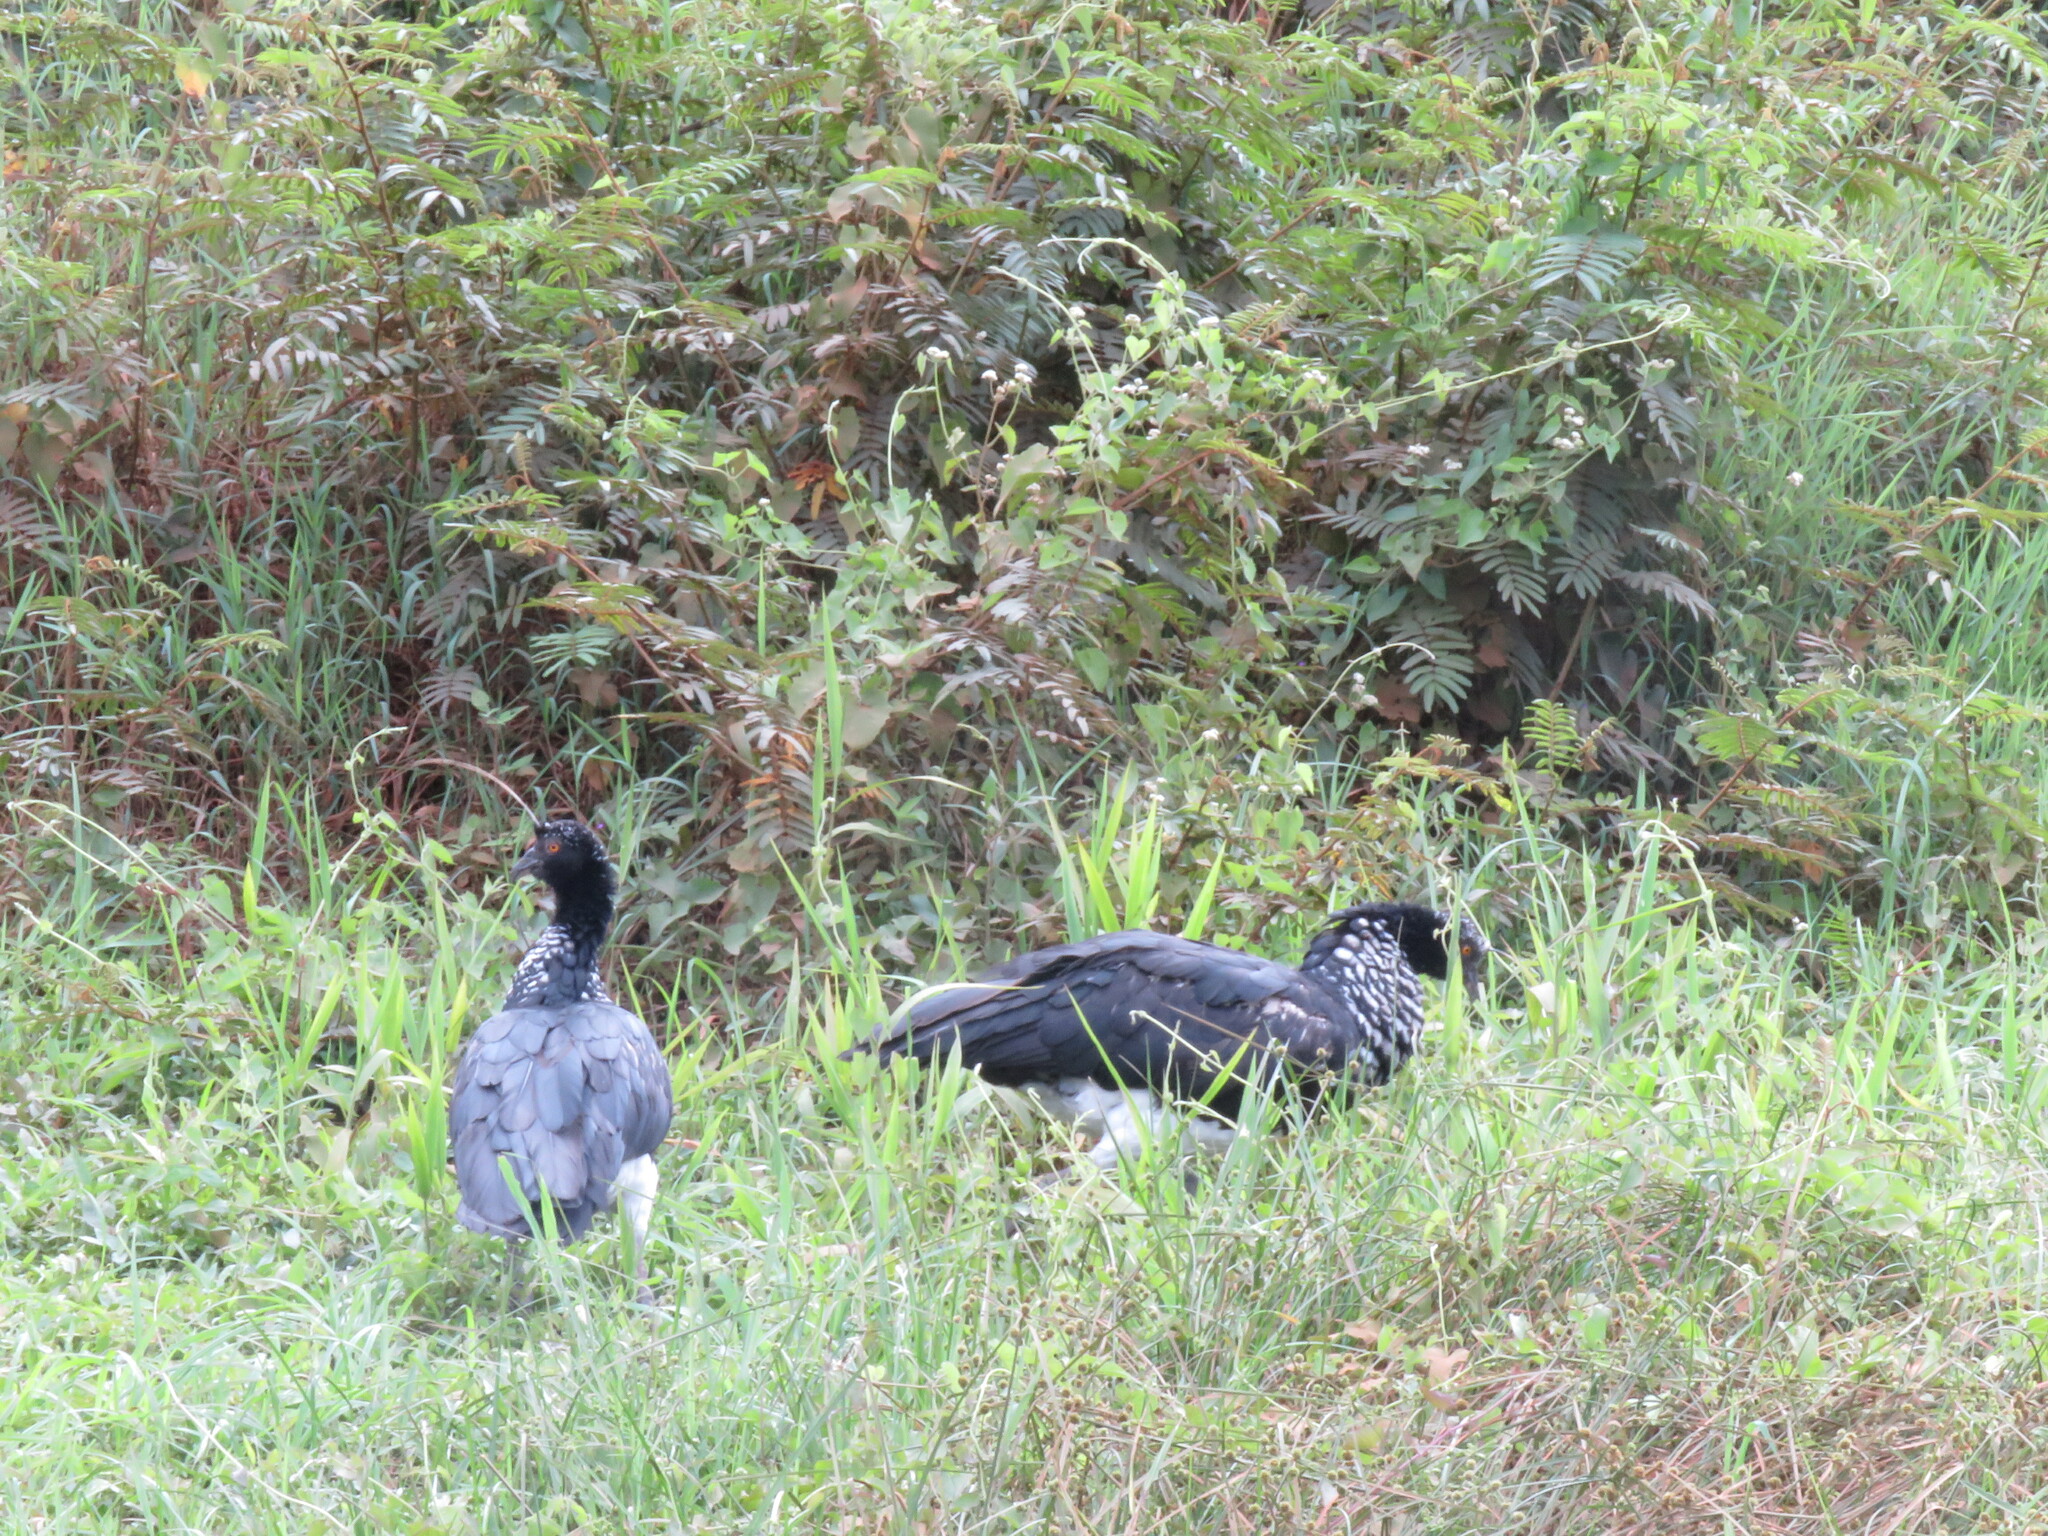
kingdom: Animalia
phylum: Chordata
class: Aves
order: Anseriformes
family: Anhimidae
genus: Anhima
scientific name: Anhima cornuta
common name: Horned screamer
